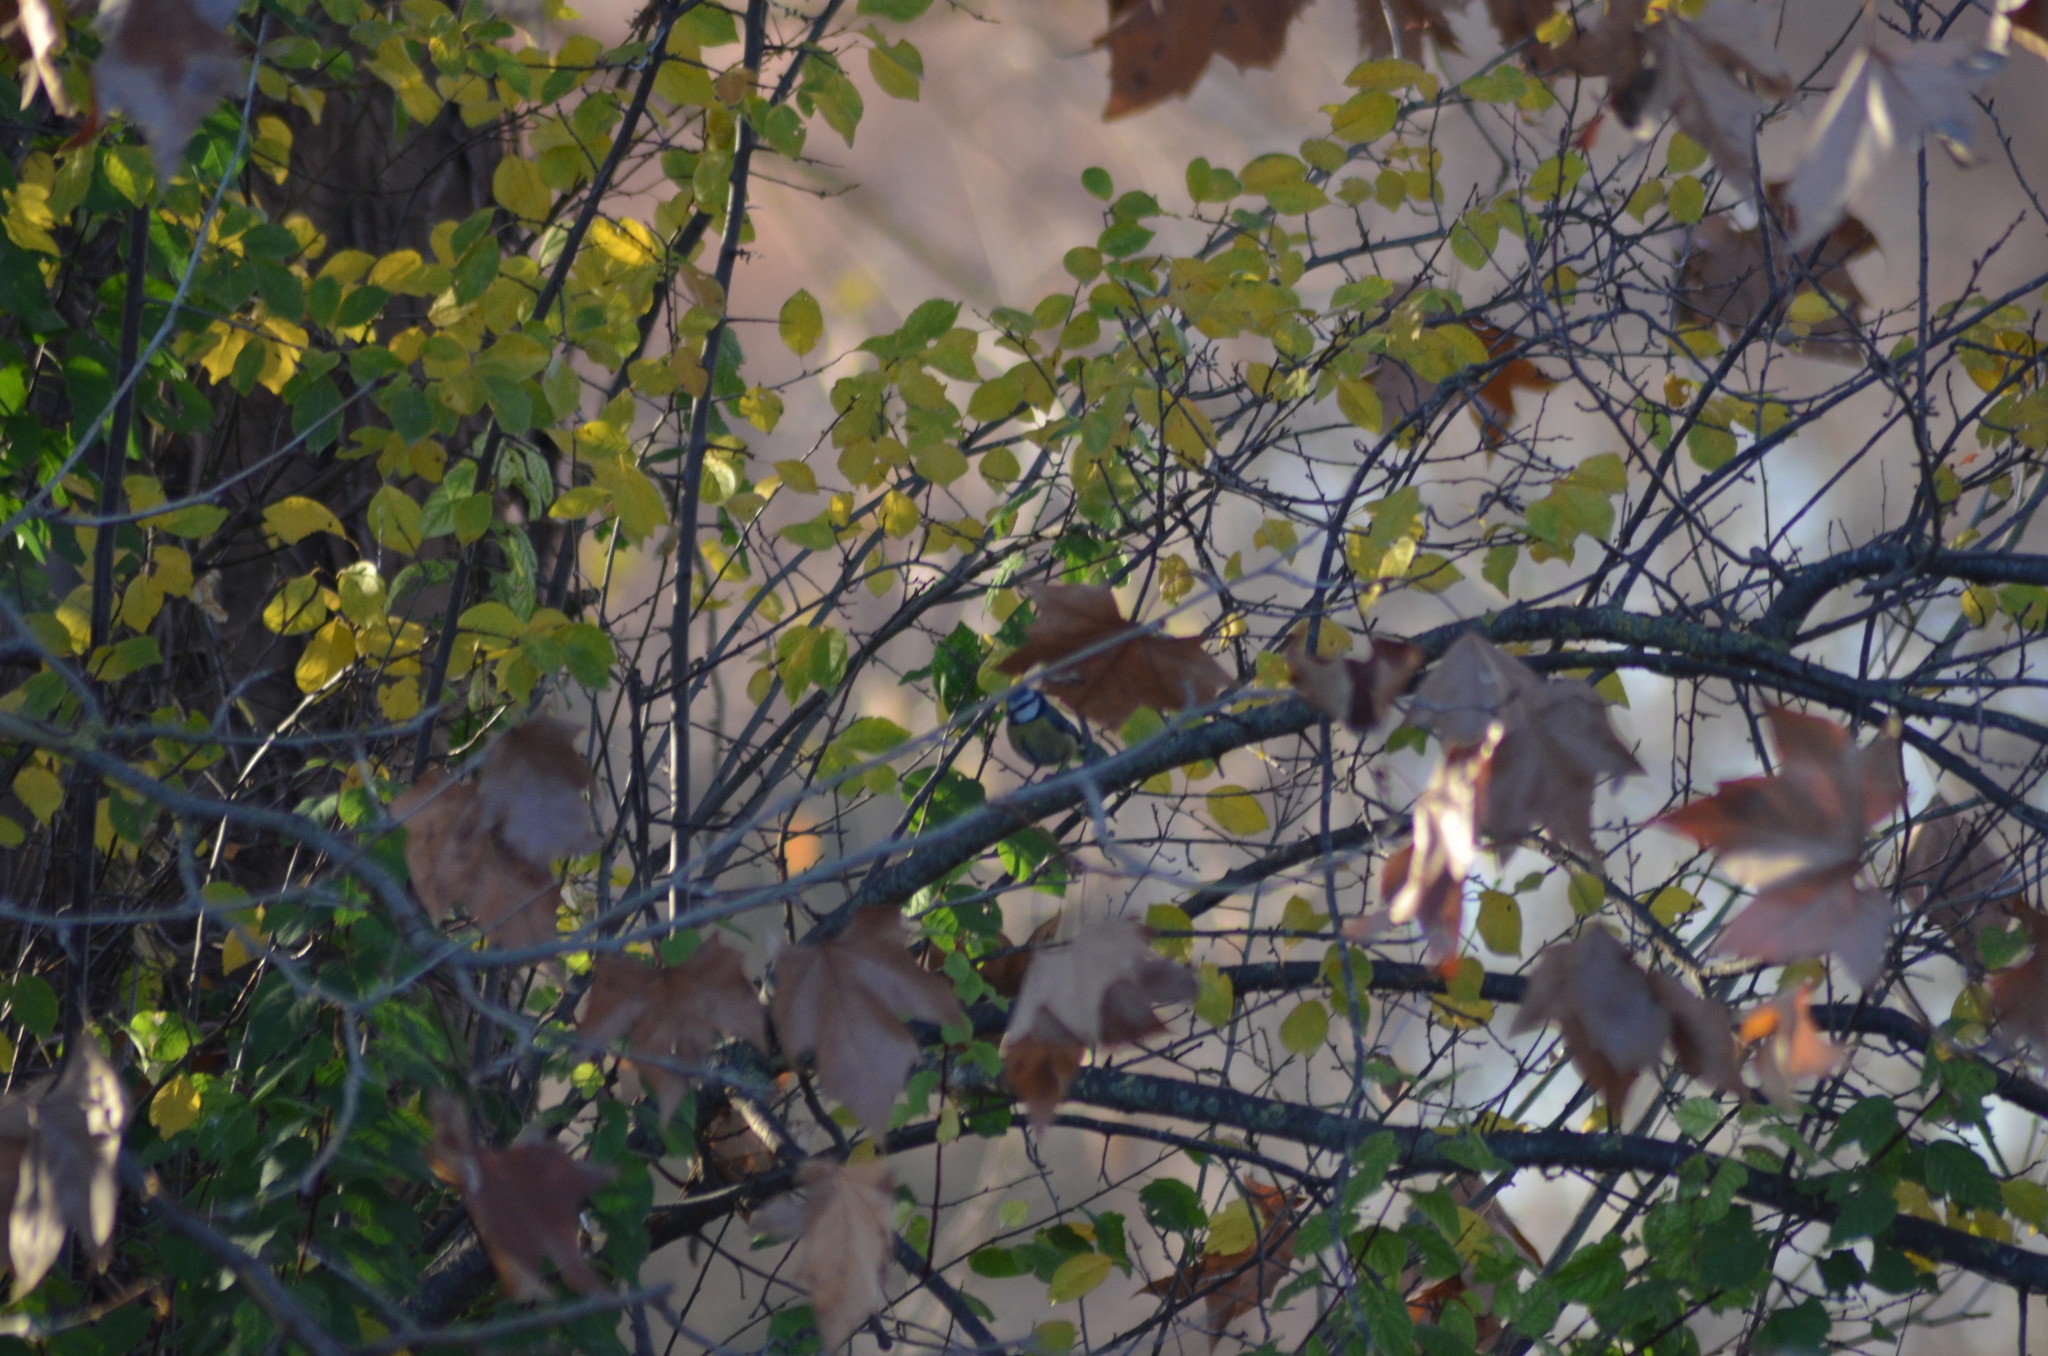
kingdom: Animalia
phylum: Chordata
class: Aves
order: Passeriformes
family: Paridae
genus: Cyanistes
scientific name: Cyanistes caeruleus
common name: Eurasian blue tit
